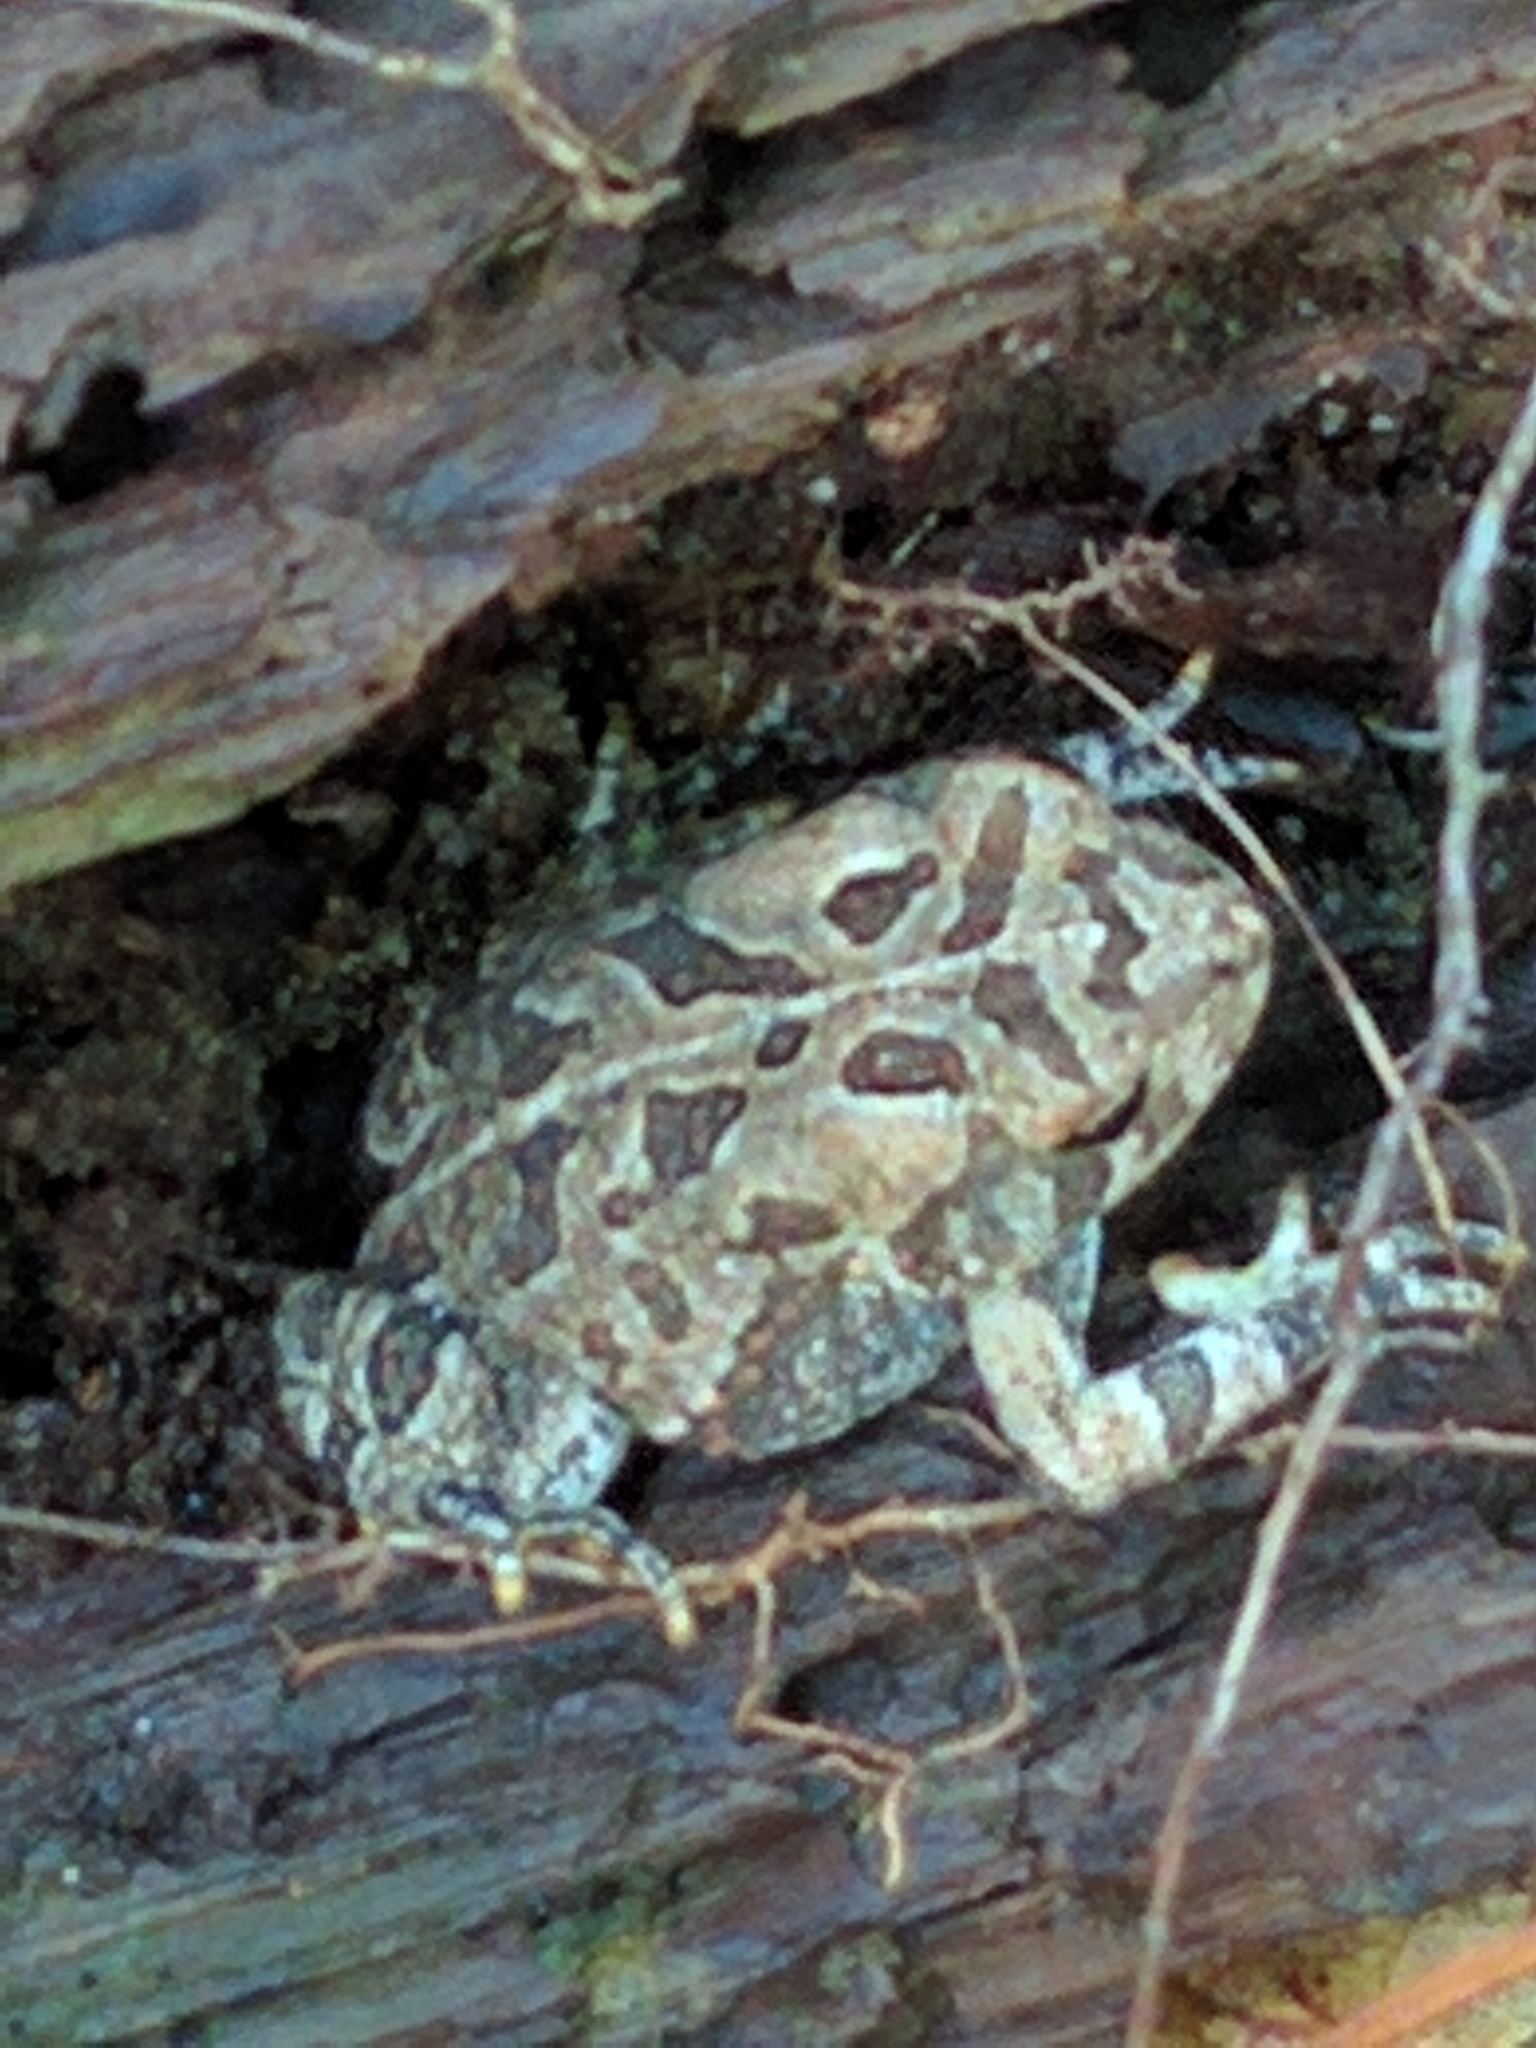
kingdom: Animalia
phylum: Chordata
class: Amphibia
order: Anura
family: Bufonidae
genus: Anaxyrus
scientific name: Anaxyrus fowleri
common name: Fowler's toad
